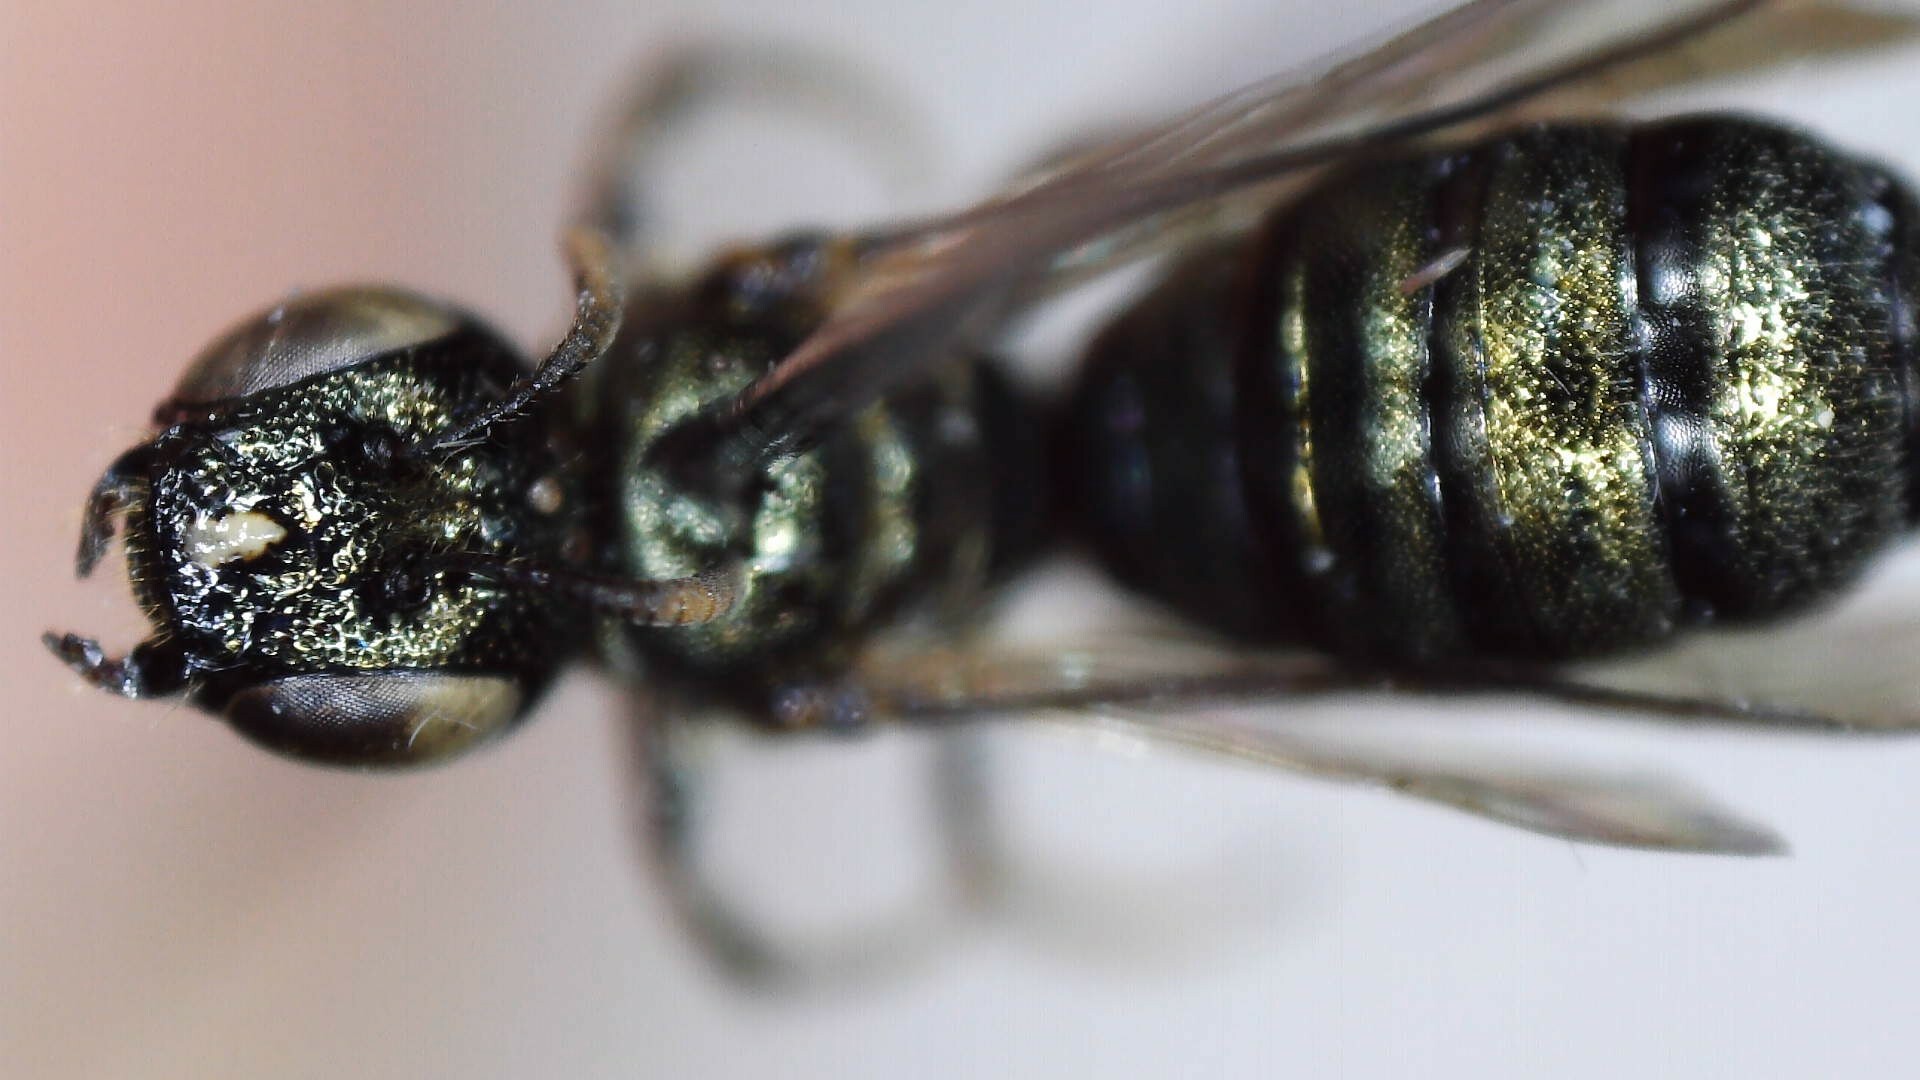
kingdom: Animalia
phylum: Arthropoda
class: Insecta
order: Hymenoptera
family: Apidae
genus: Zadontomerus
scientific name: Zadontomerus
